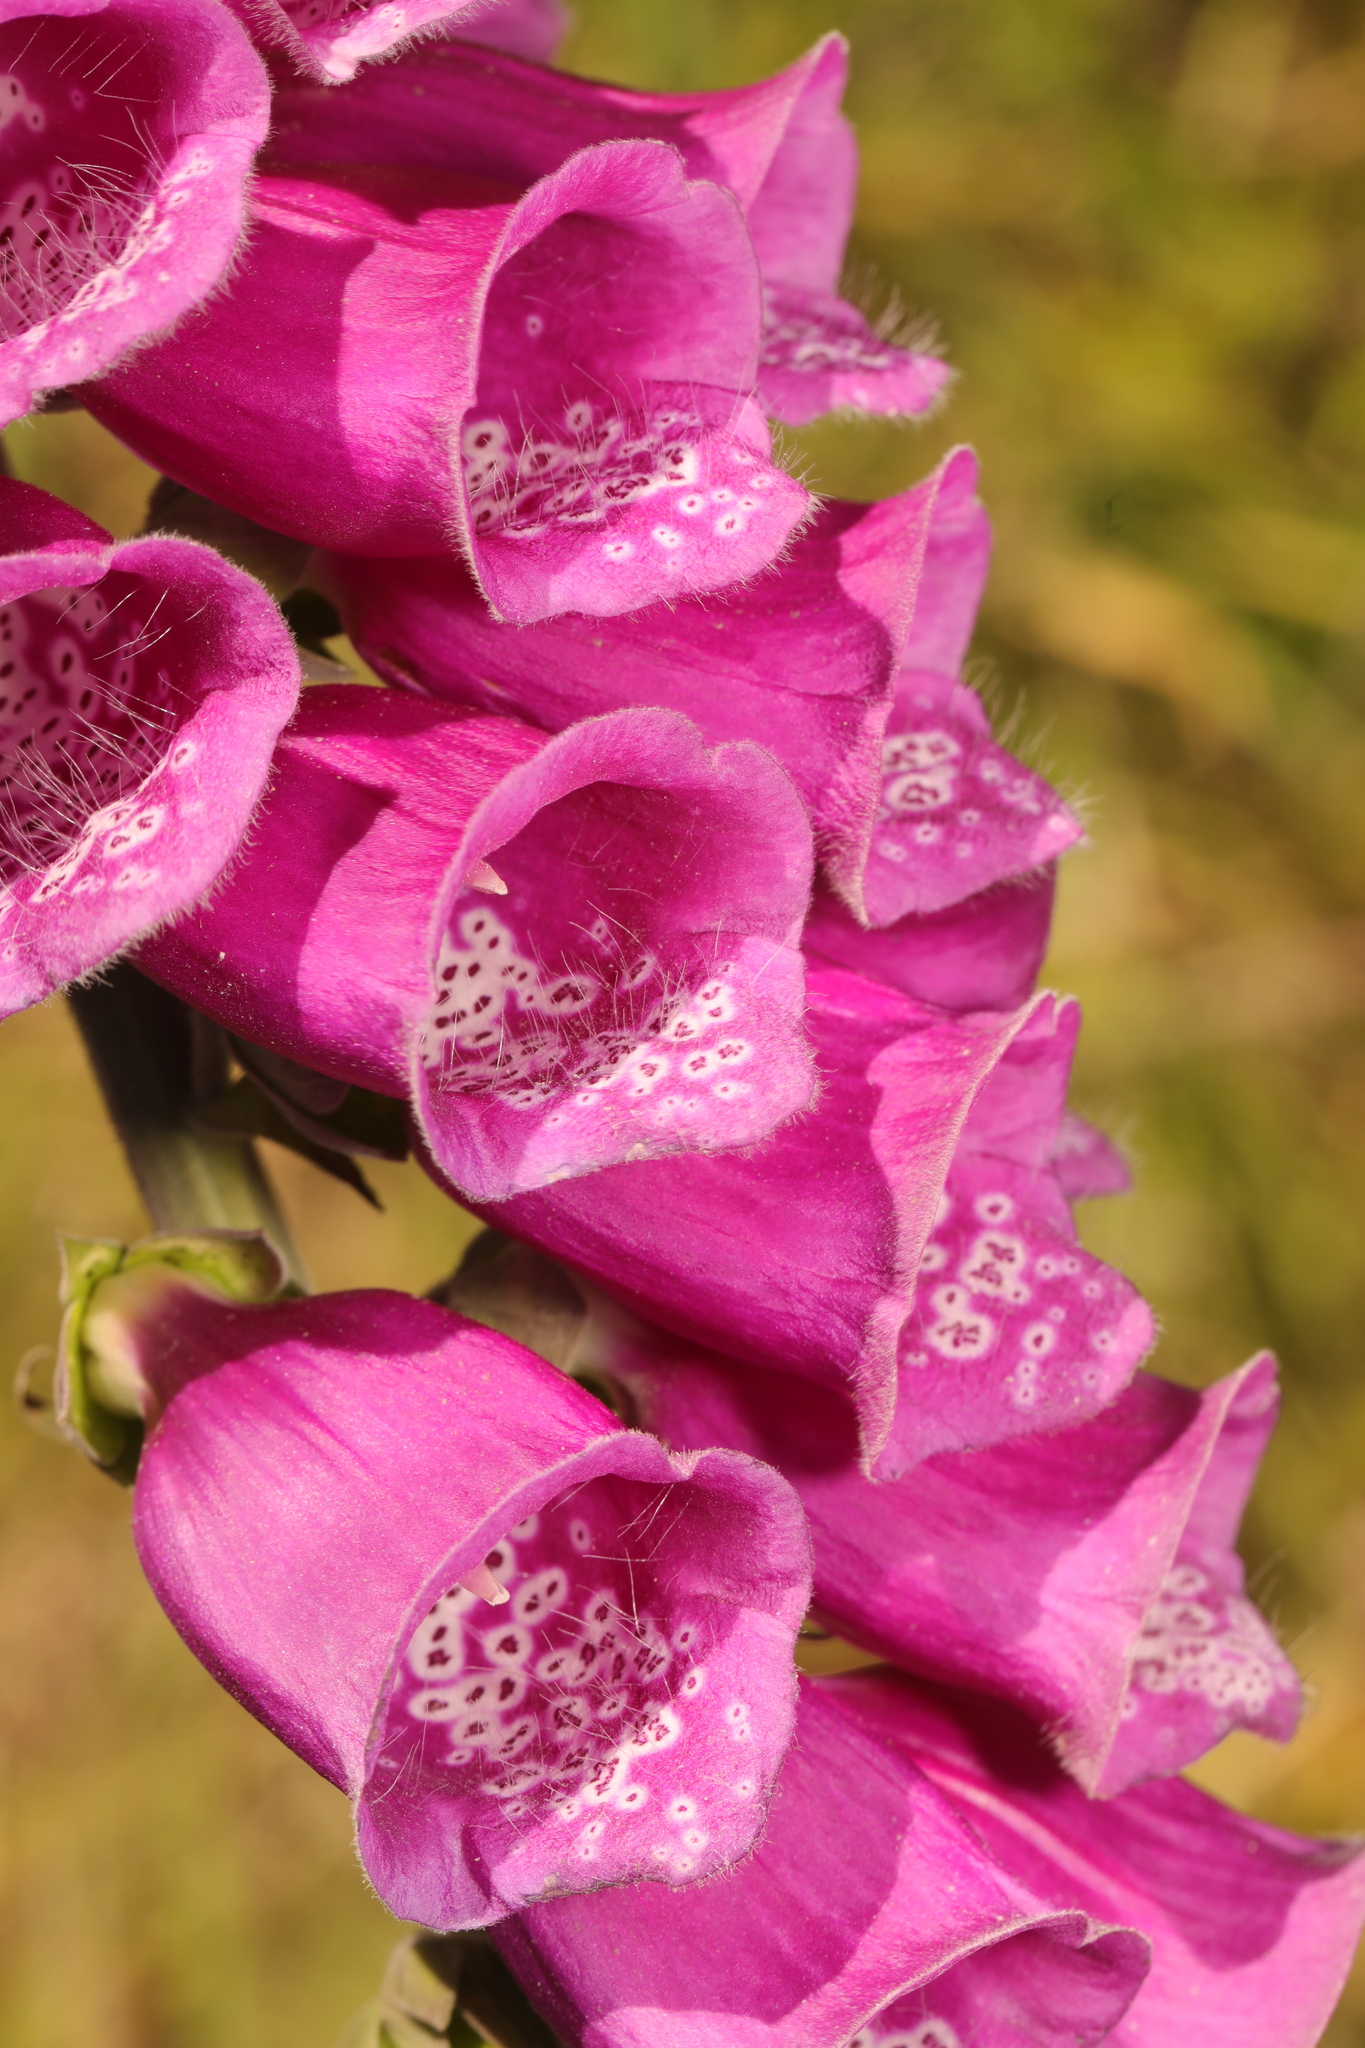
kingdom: Plantae
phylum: Tracheophyta
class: Magnoliopsida
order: Lamiales
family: Plantaginaceae
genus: Digitalis
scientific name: Digitalis purpurea
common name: Foxglove
